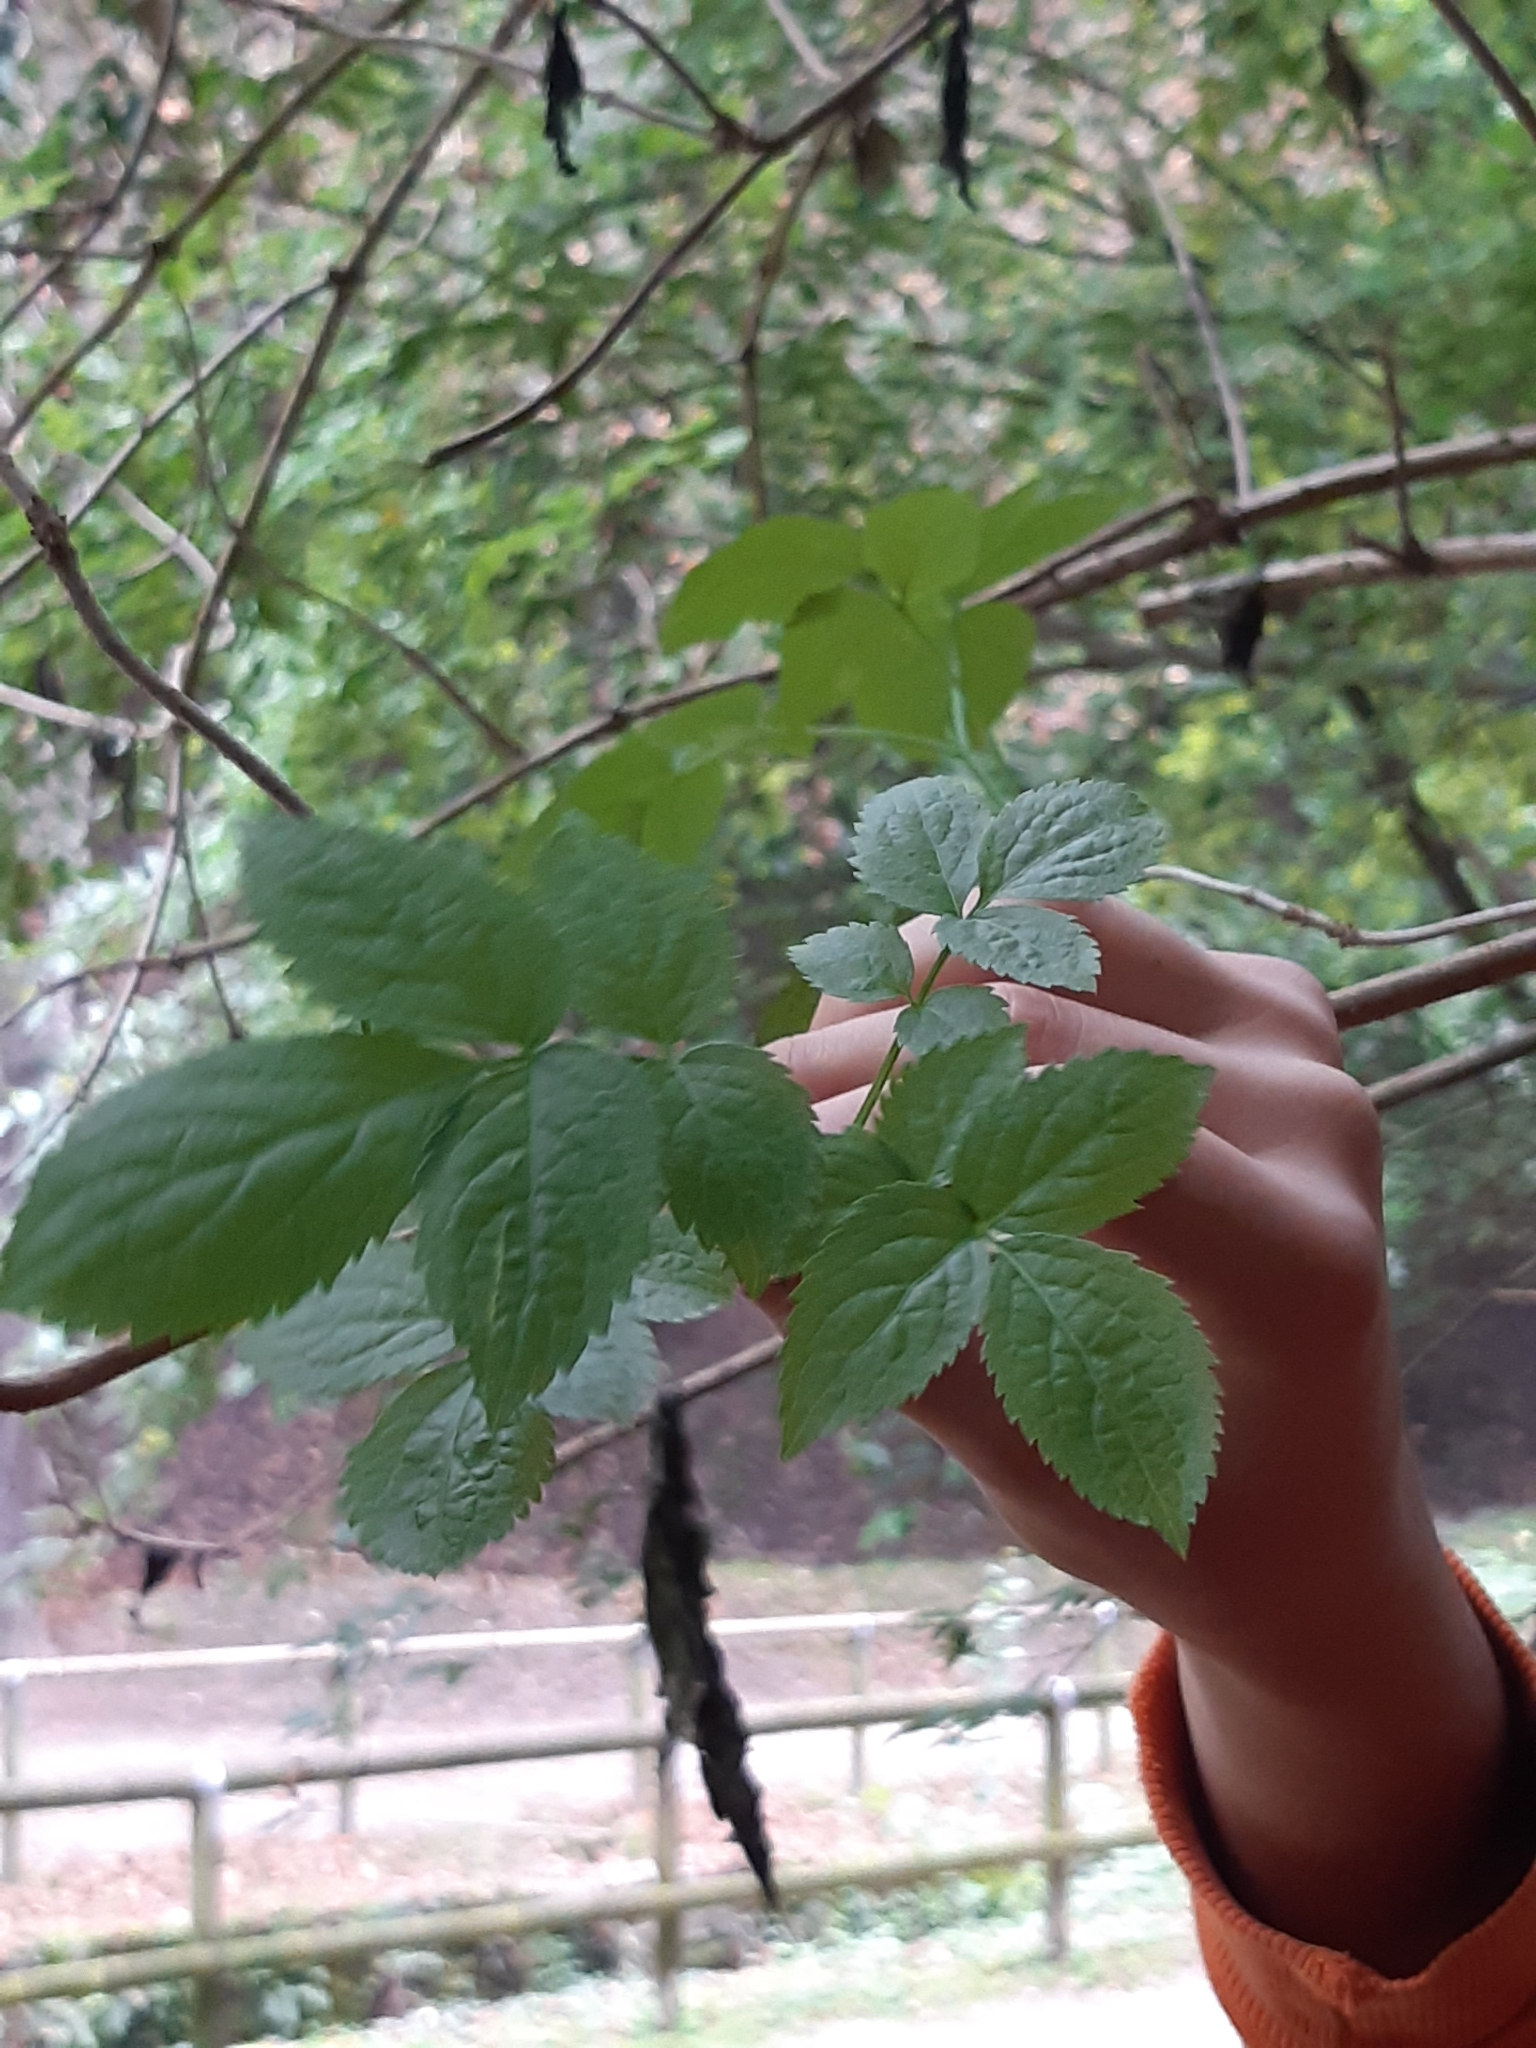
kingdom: Plantae
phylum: Tracheophyta
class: Magnoliopsida
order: Dipsacales
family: Viburnaceae
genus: Sambucus
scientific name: Sambucus nigra
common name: Elder
